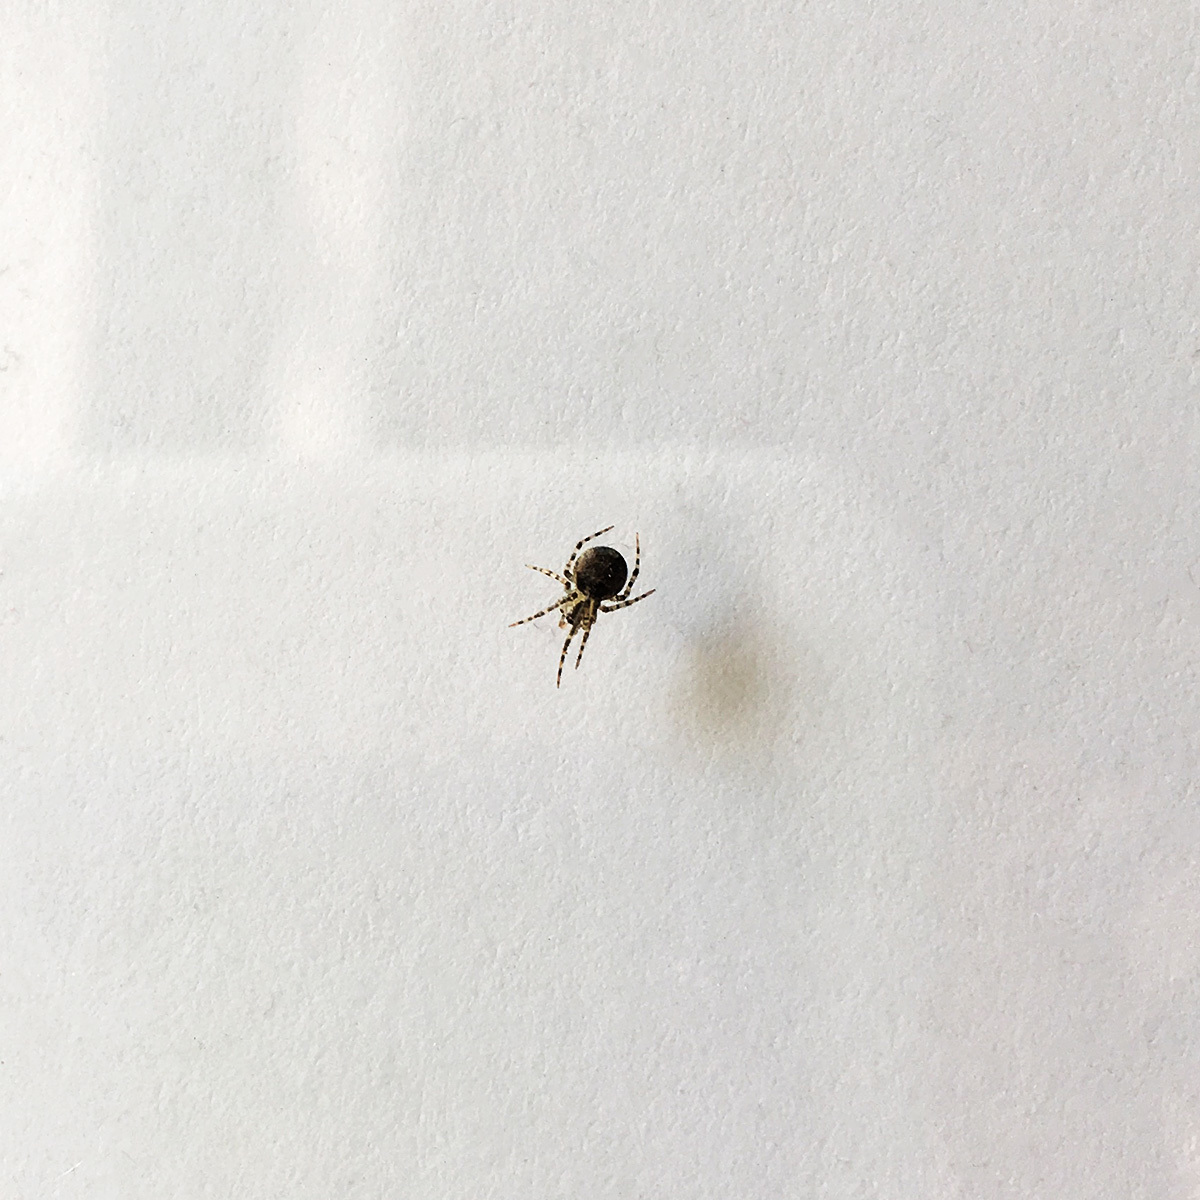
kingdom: Animalia
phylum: Arthropoda
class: Arachnida
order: Araneae
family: Theridiidae
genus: Platnickina
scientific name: Platnickina tincta
